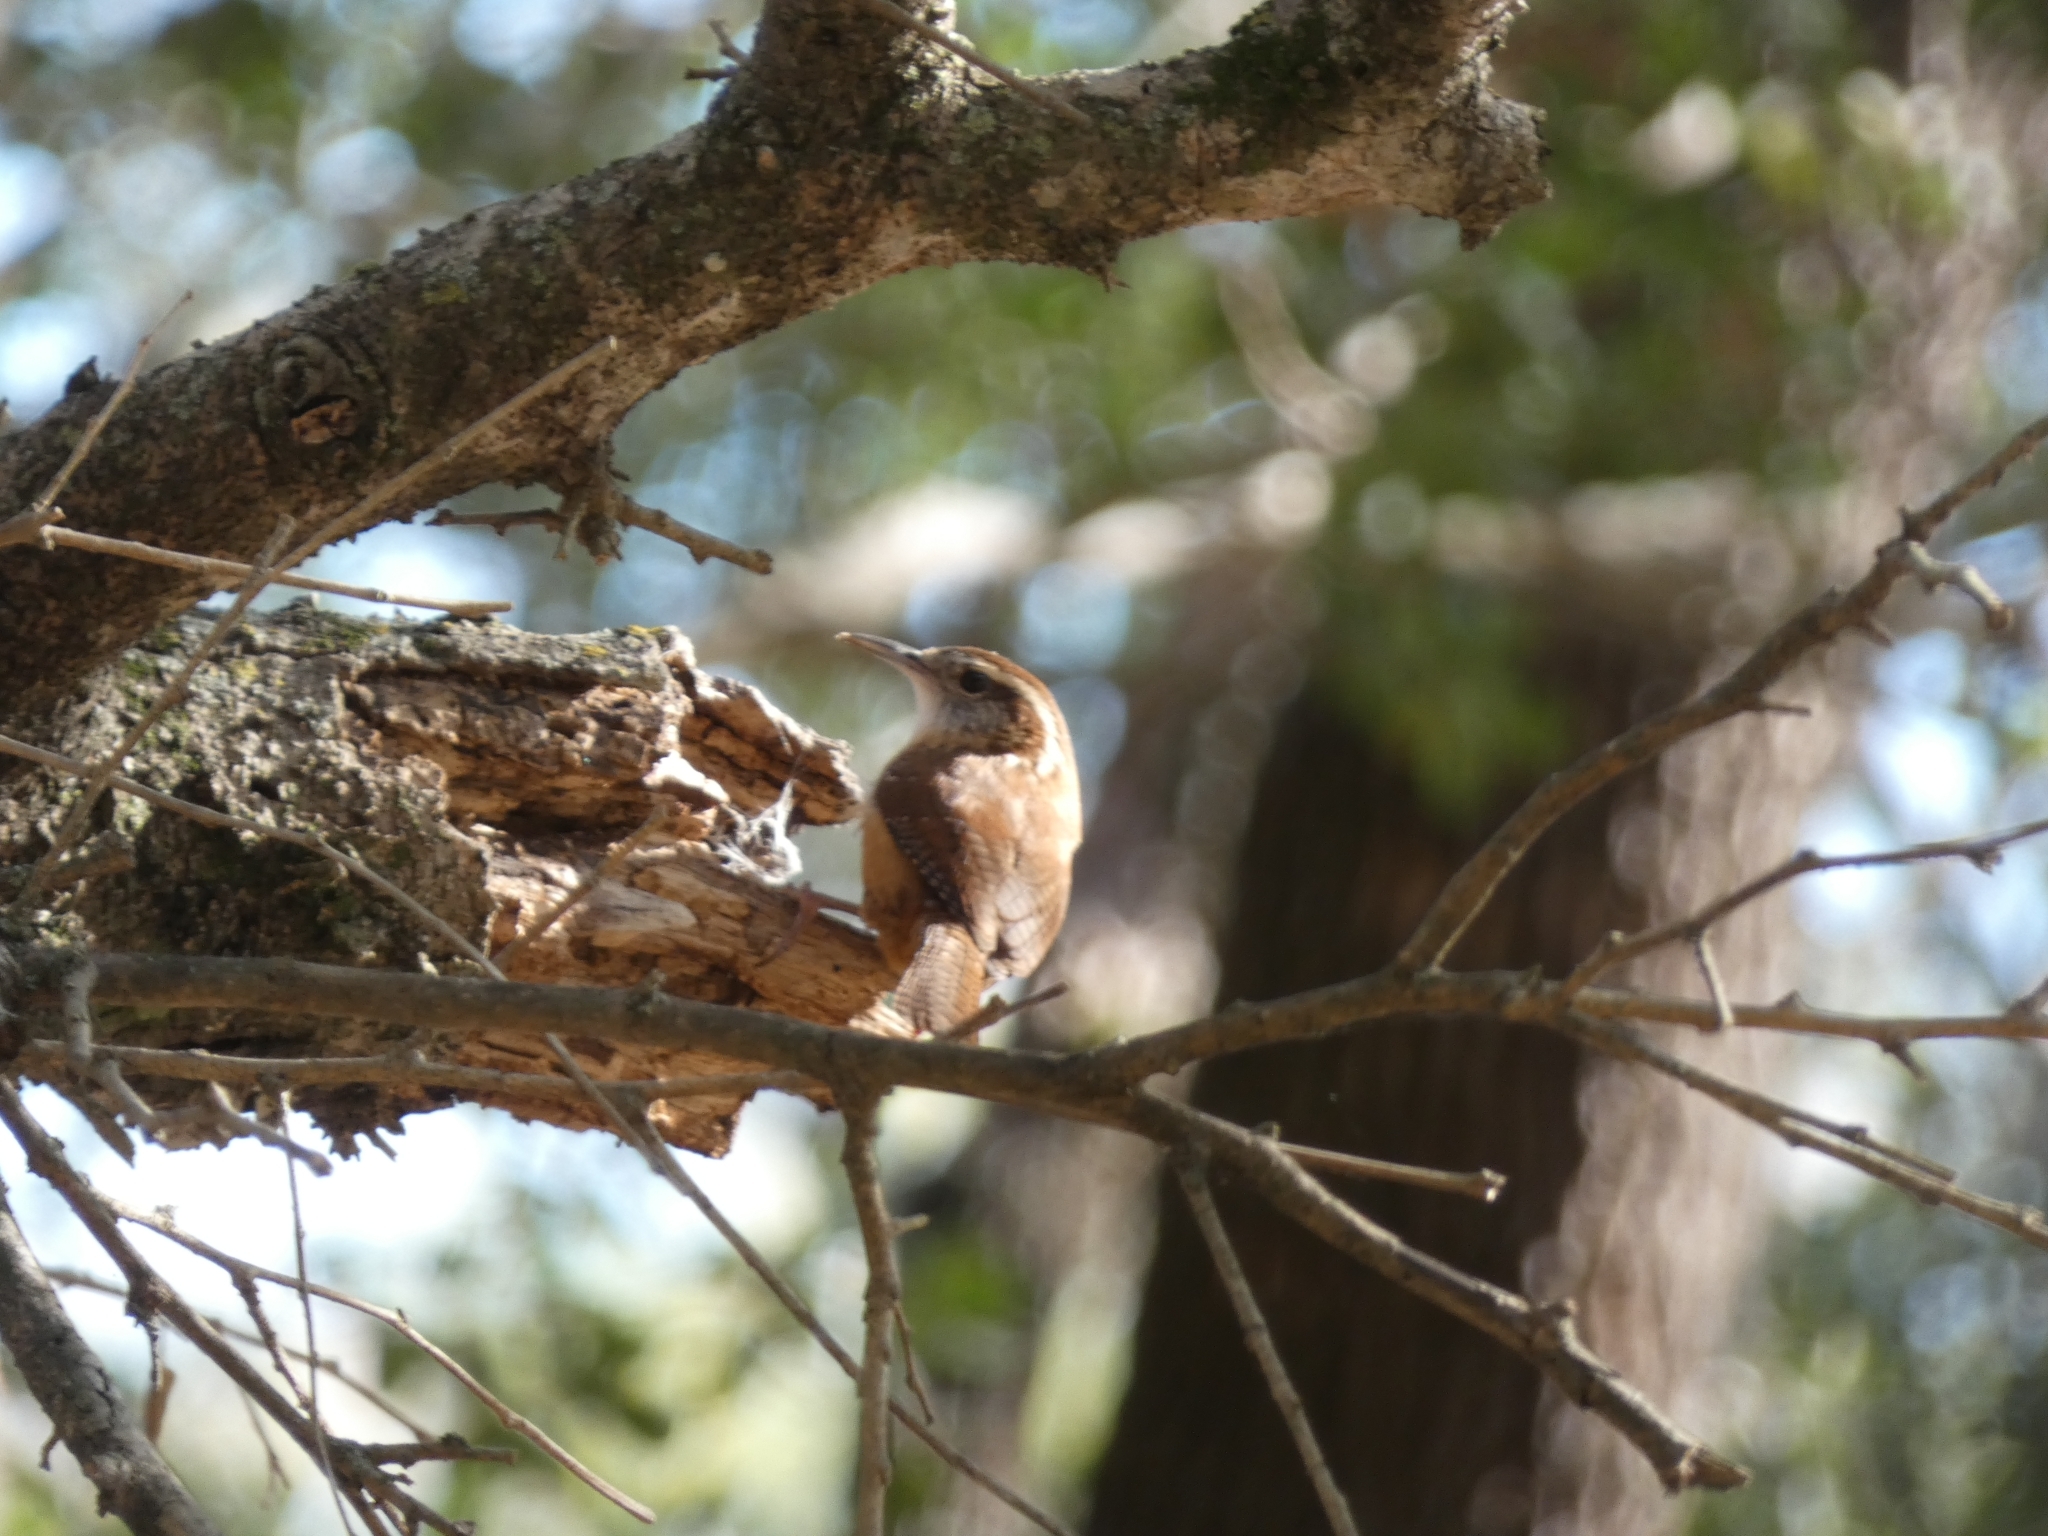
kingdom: Animalia
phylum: Chordata
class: Aves
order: Passeriformes
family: Troglodytidae
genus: Thryothorus
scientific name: Thryothorus ludovicianus
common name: Carolina wren
